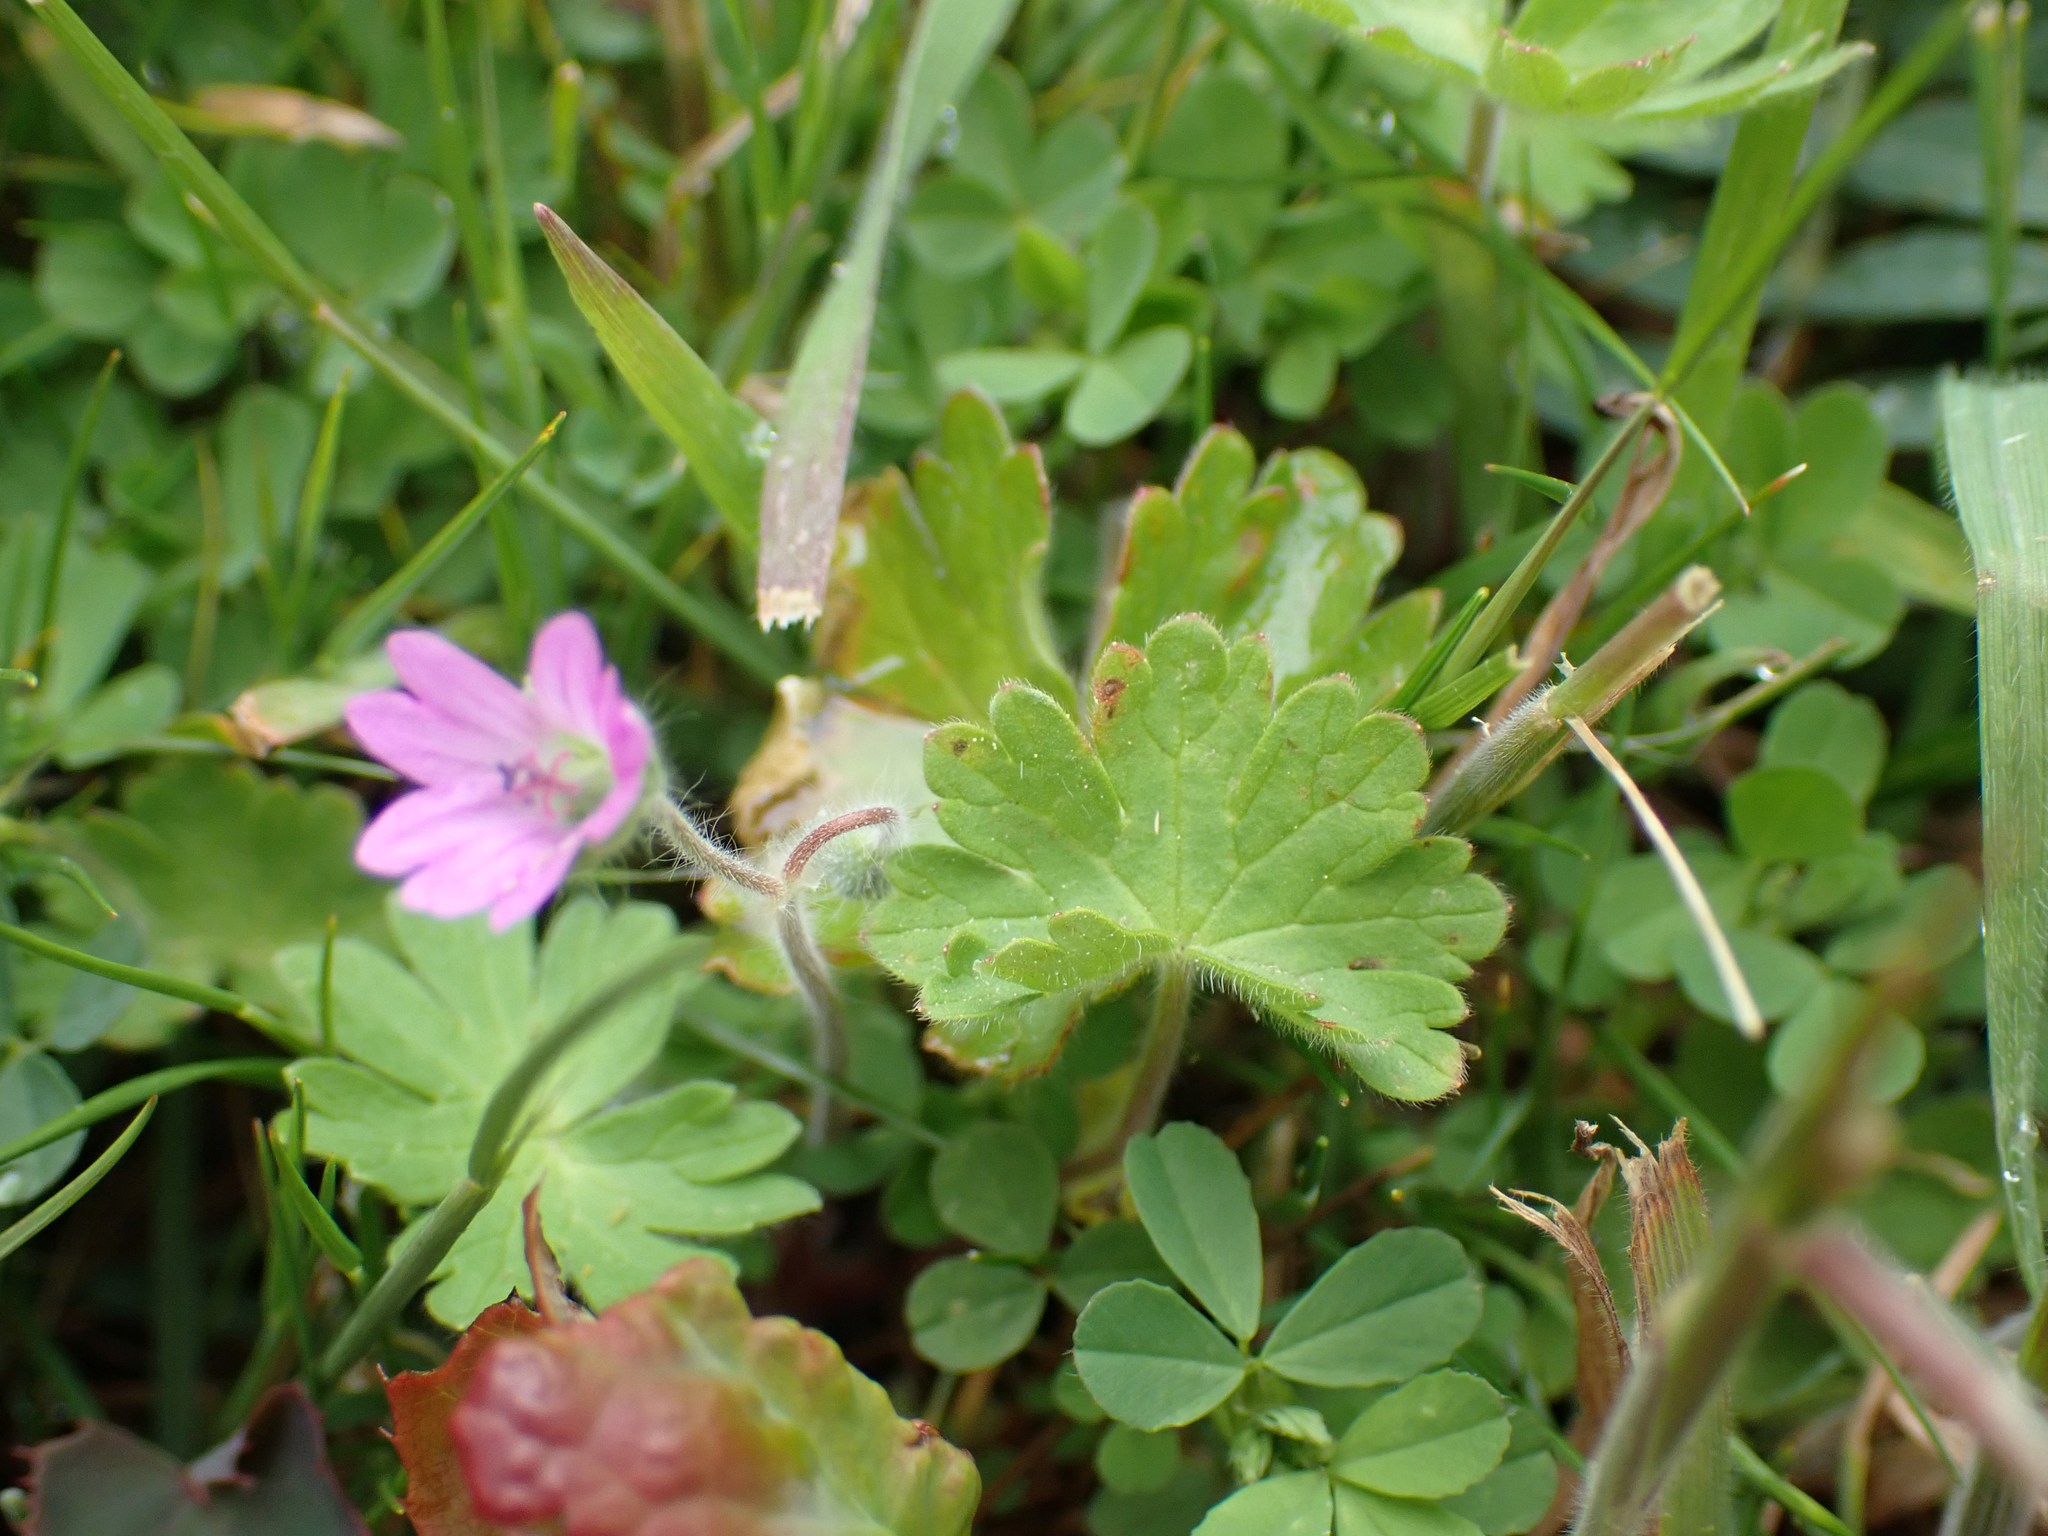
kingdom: Plantae
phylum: Tracheophyta
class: Magnoliopsida
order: Geraniales
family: Geraniaceae
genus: Geranium
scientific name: Geranium molle
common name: Dove's-foot crane's-bill
